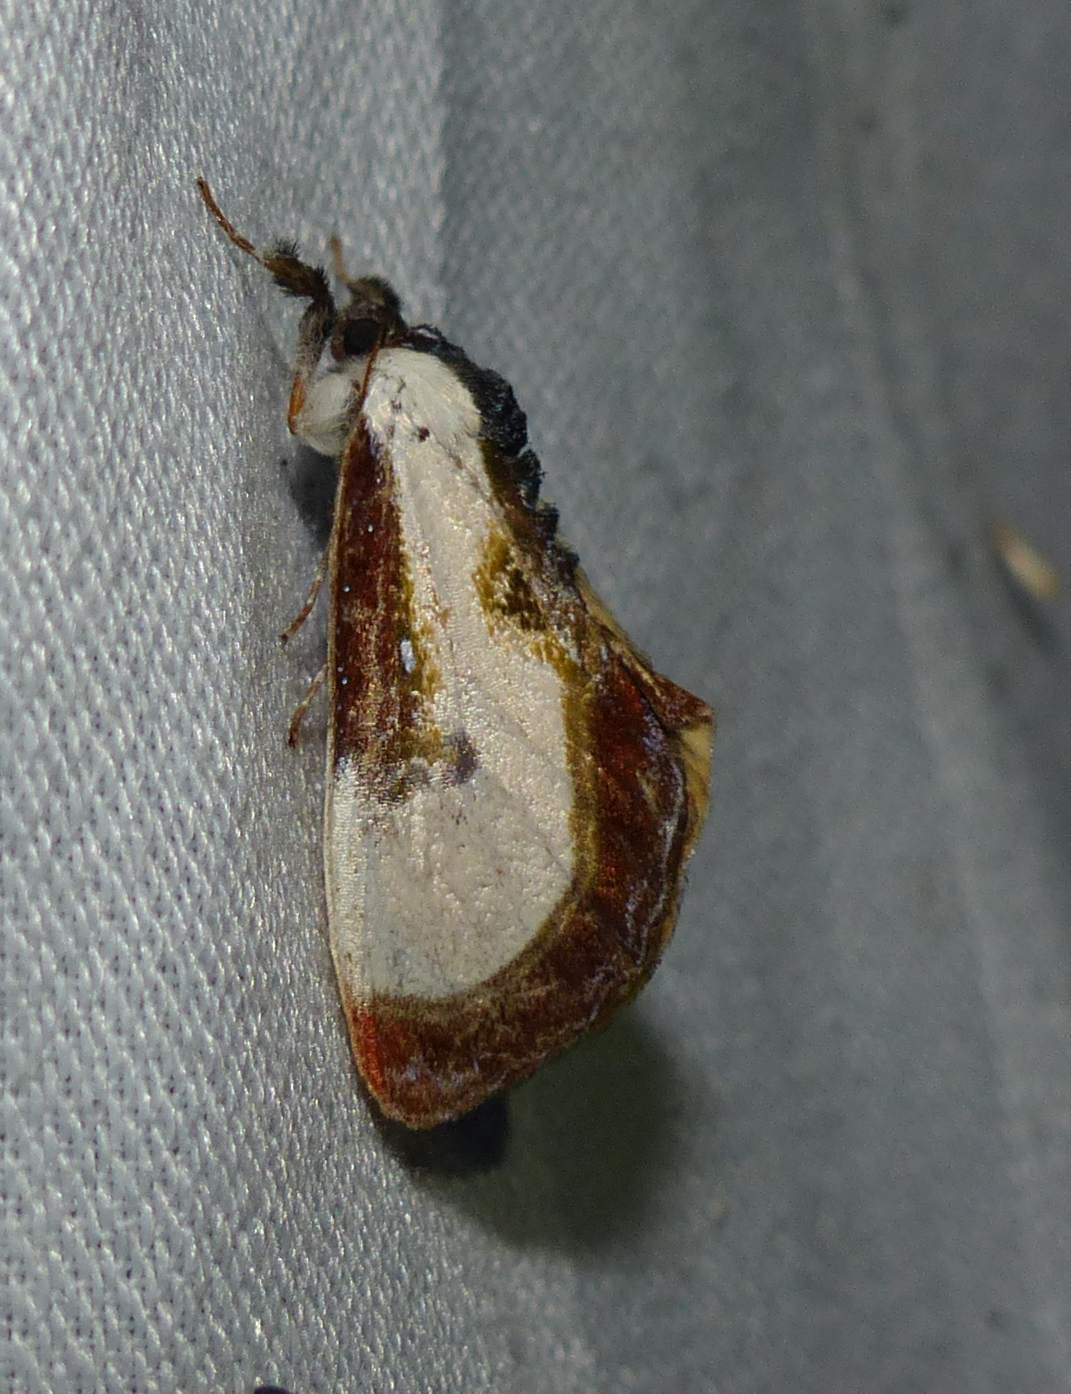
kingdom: Animalia
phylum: Arthropoda
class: Insecta
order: Lepidoptera
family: Noctuidae
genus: Eudryas
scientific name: Eudryas grata
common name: Beautiful wood-nymph
